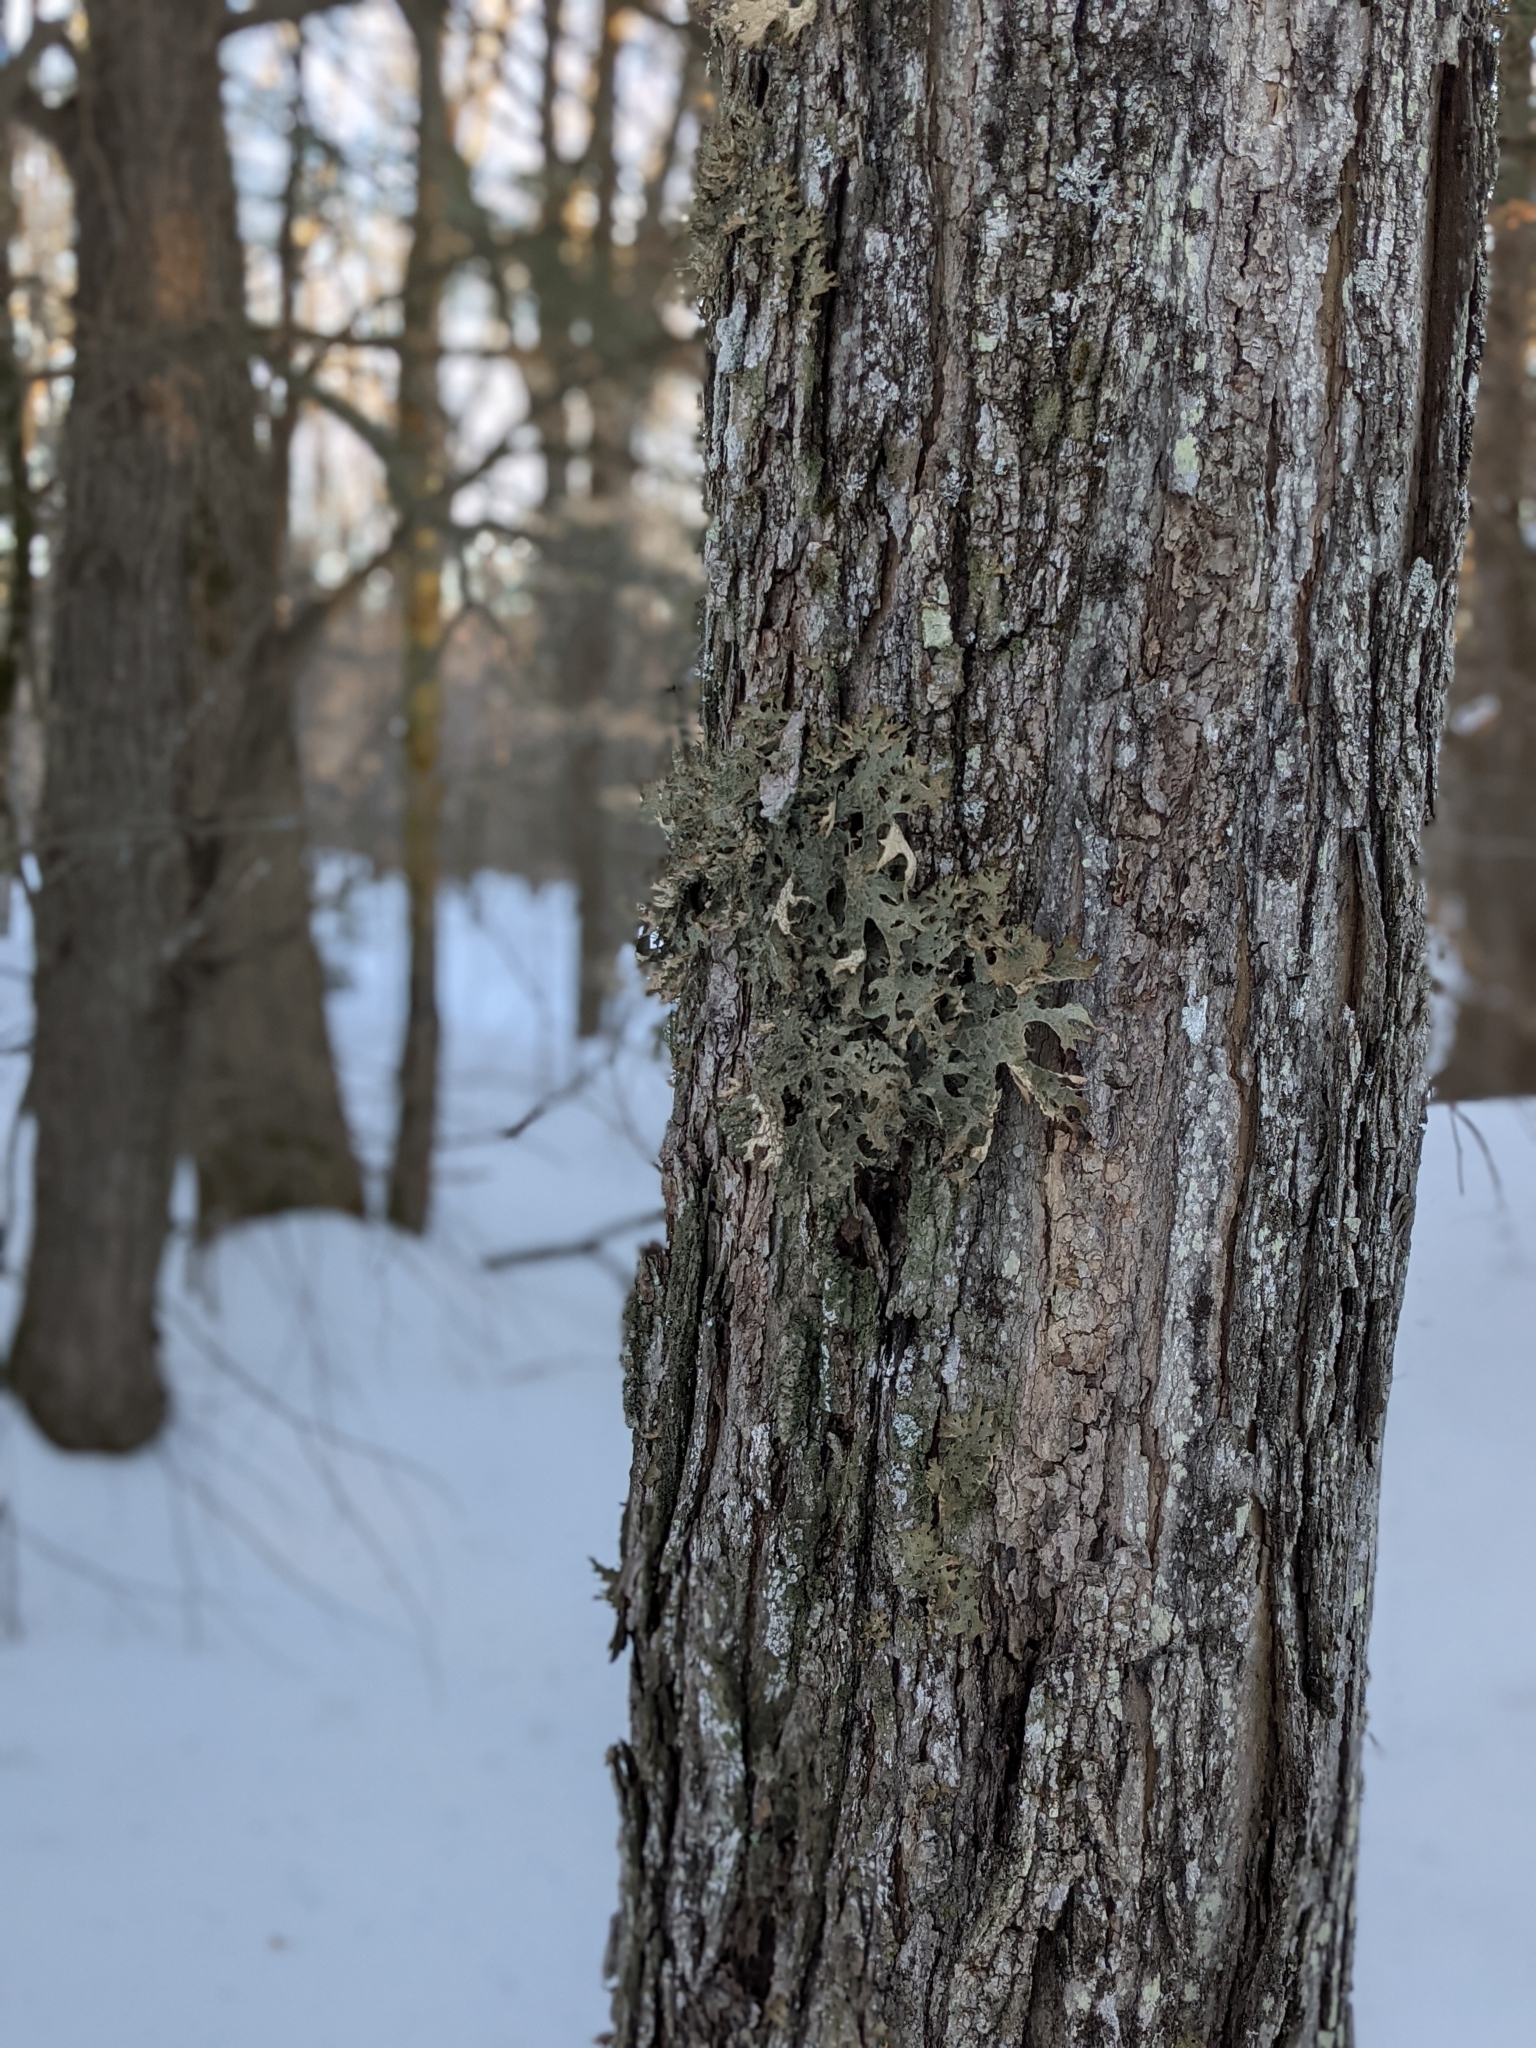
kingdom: Fungi
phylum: Ascomycota
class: Lecanoromycetes
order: Peltigerales
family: Lobariaceae
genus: Lobaria
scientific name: Lobaria pulmonaria
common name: Lungwort
